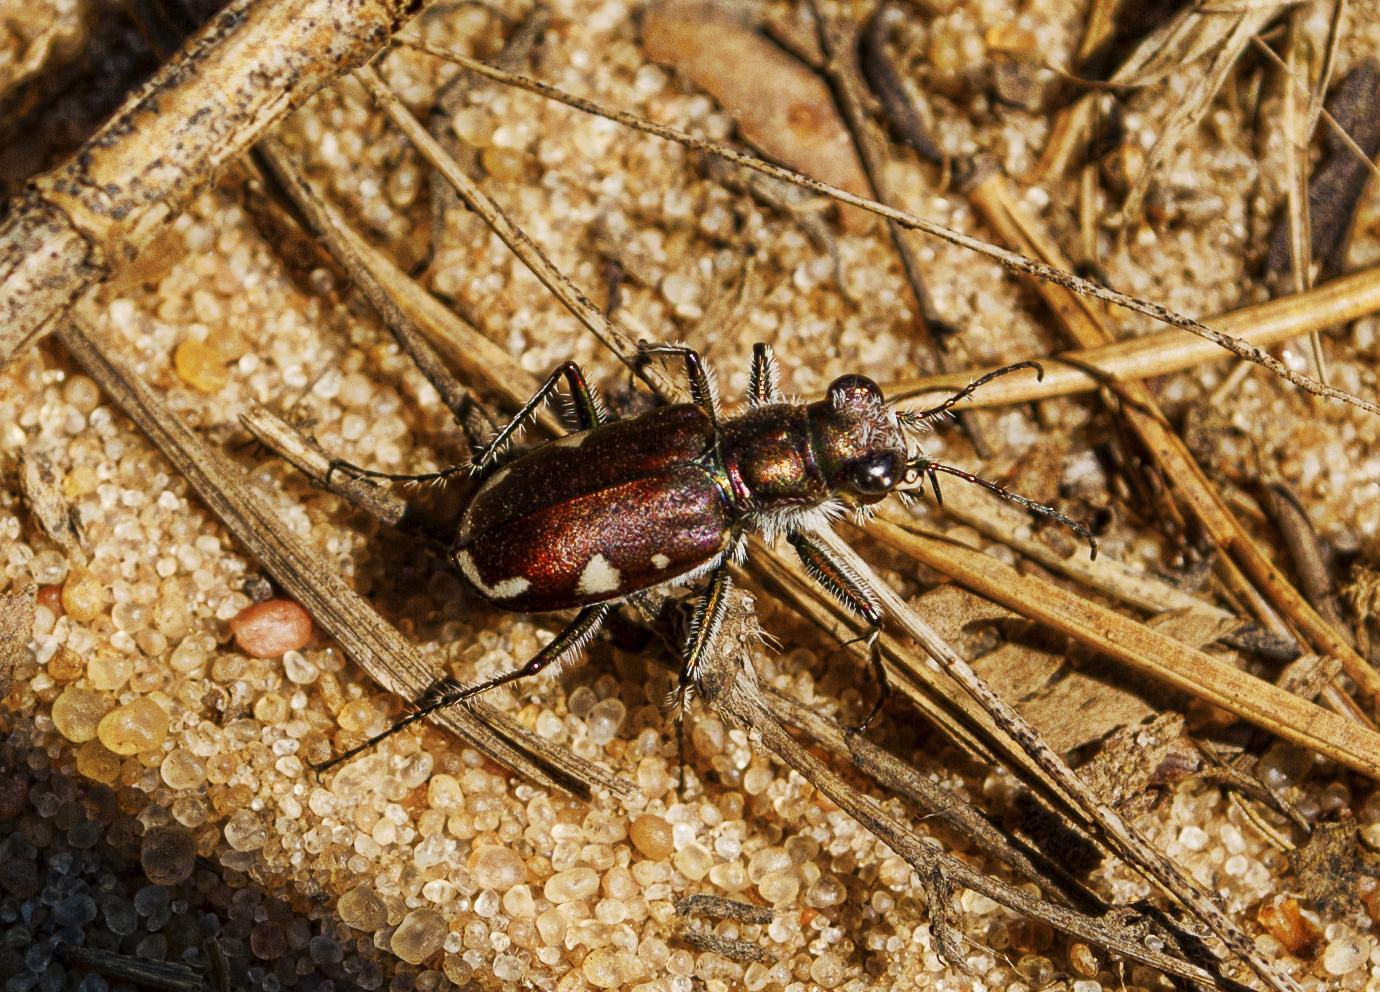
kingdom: Animalia
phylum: Arthropoda
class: Insecta
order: Coleoptera
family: Carabidae
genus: Cicindela
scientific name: Cicindela scutellaris
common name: Festive tiger beetle
